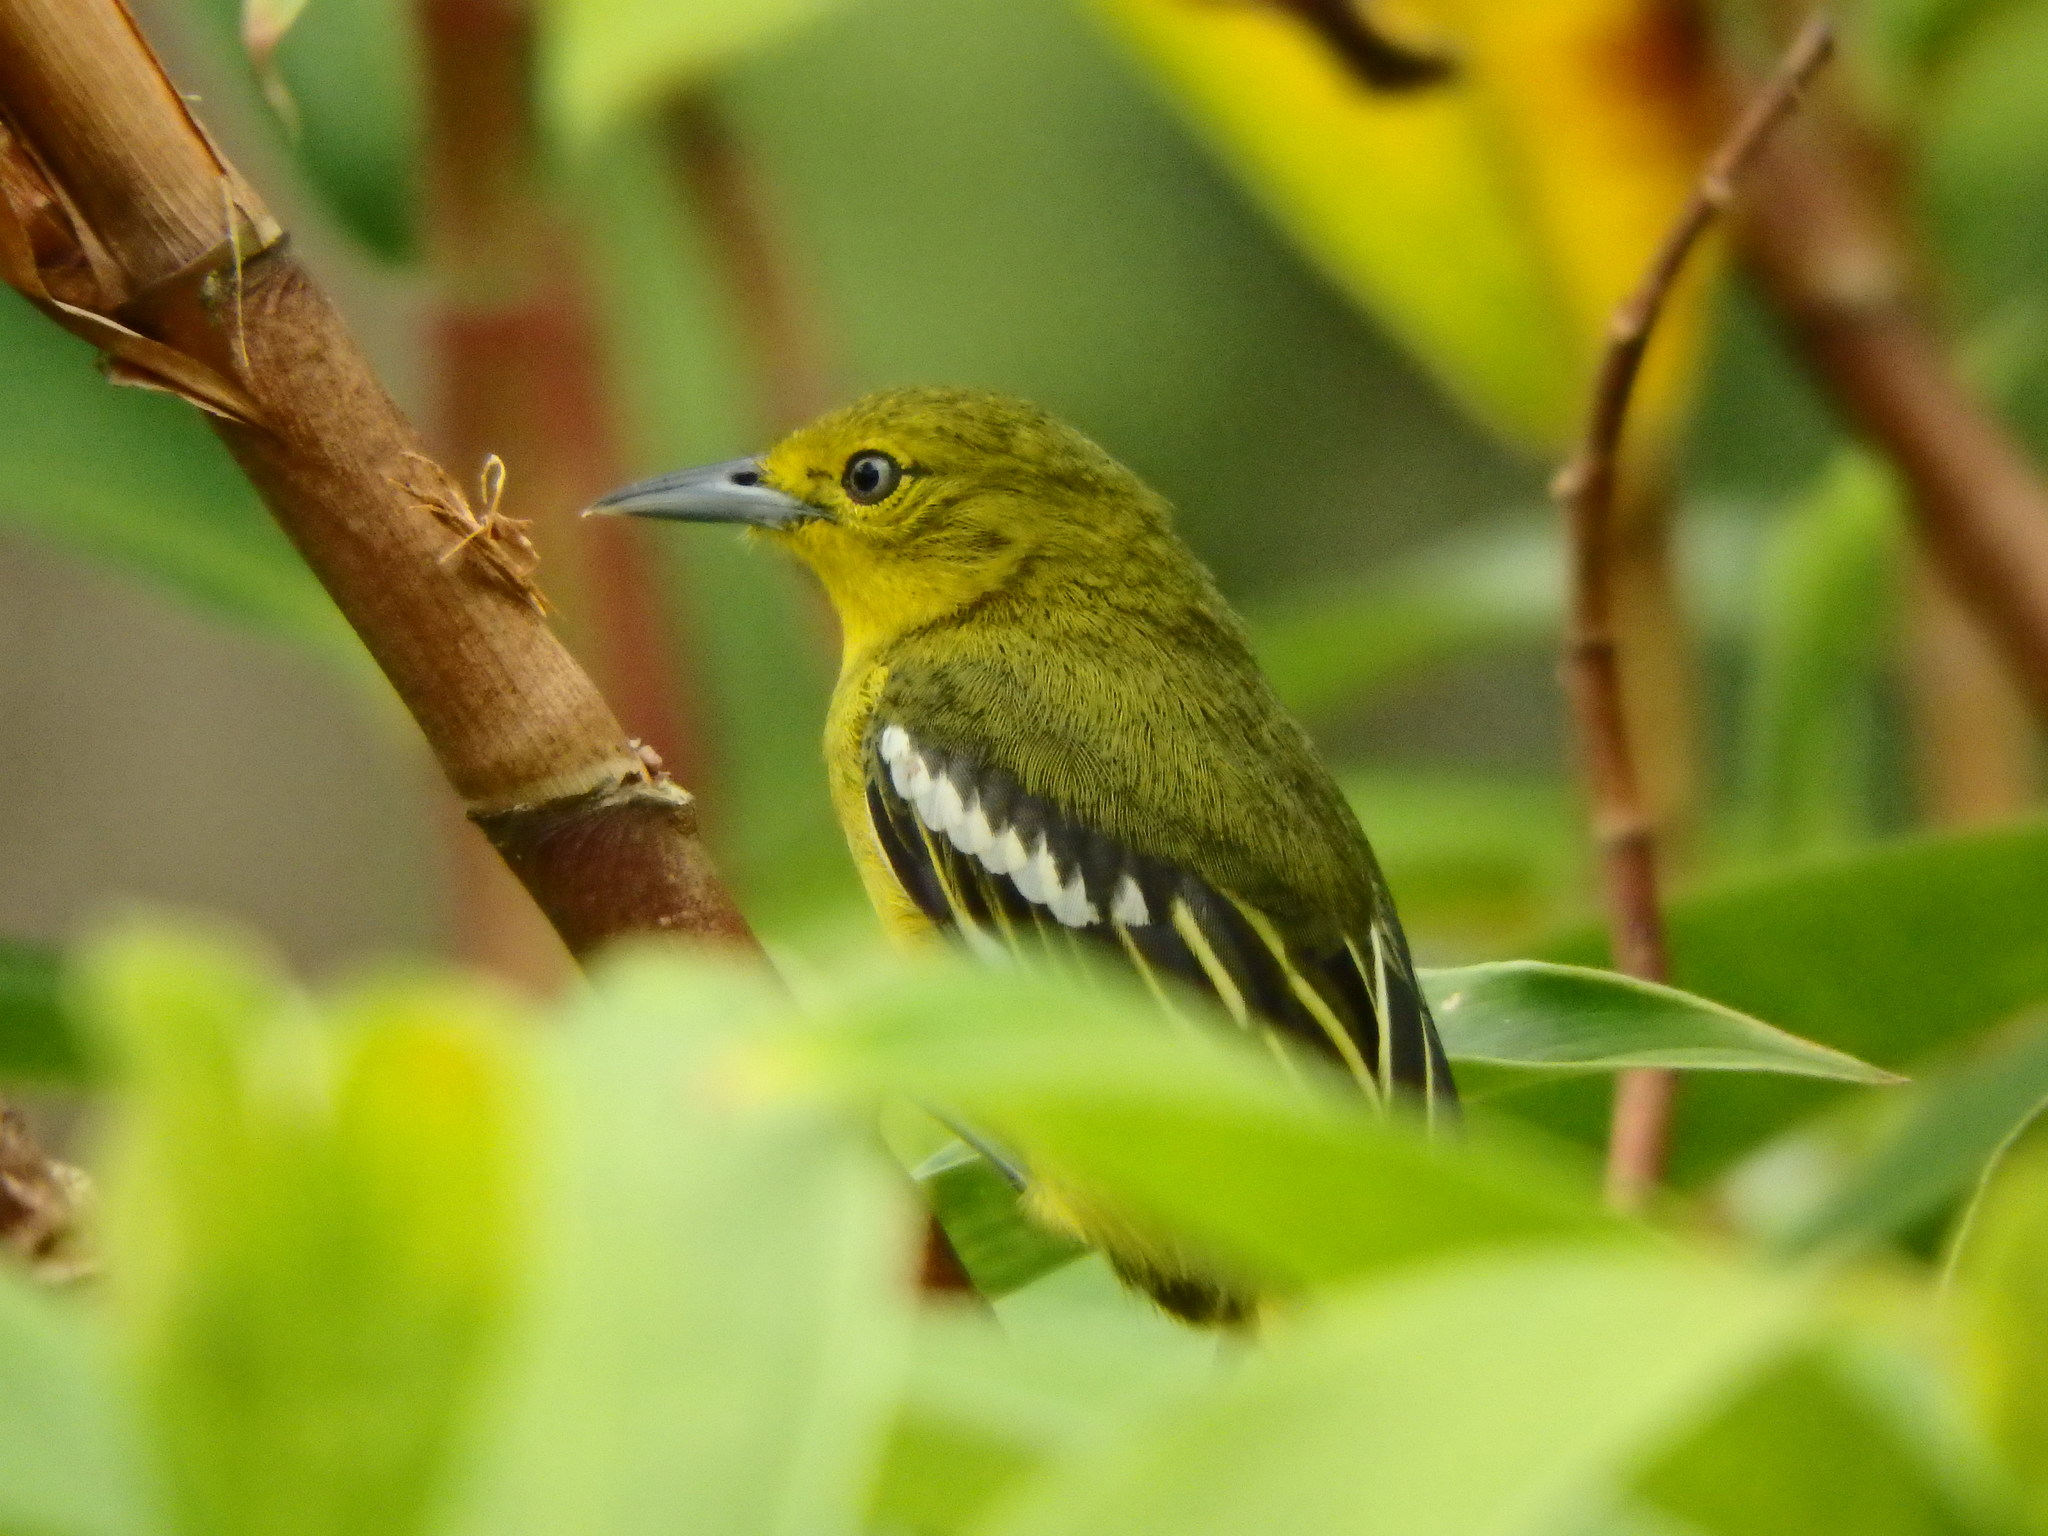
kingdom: Animalia
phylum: Chordata
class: Aves
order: Passeriformes
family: Aegithinidae
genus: Aegithina
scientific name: Aegithina tiphia
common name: Common iora
